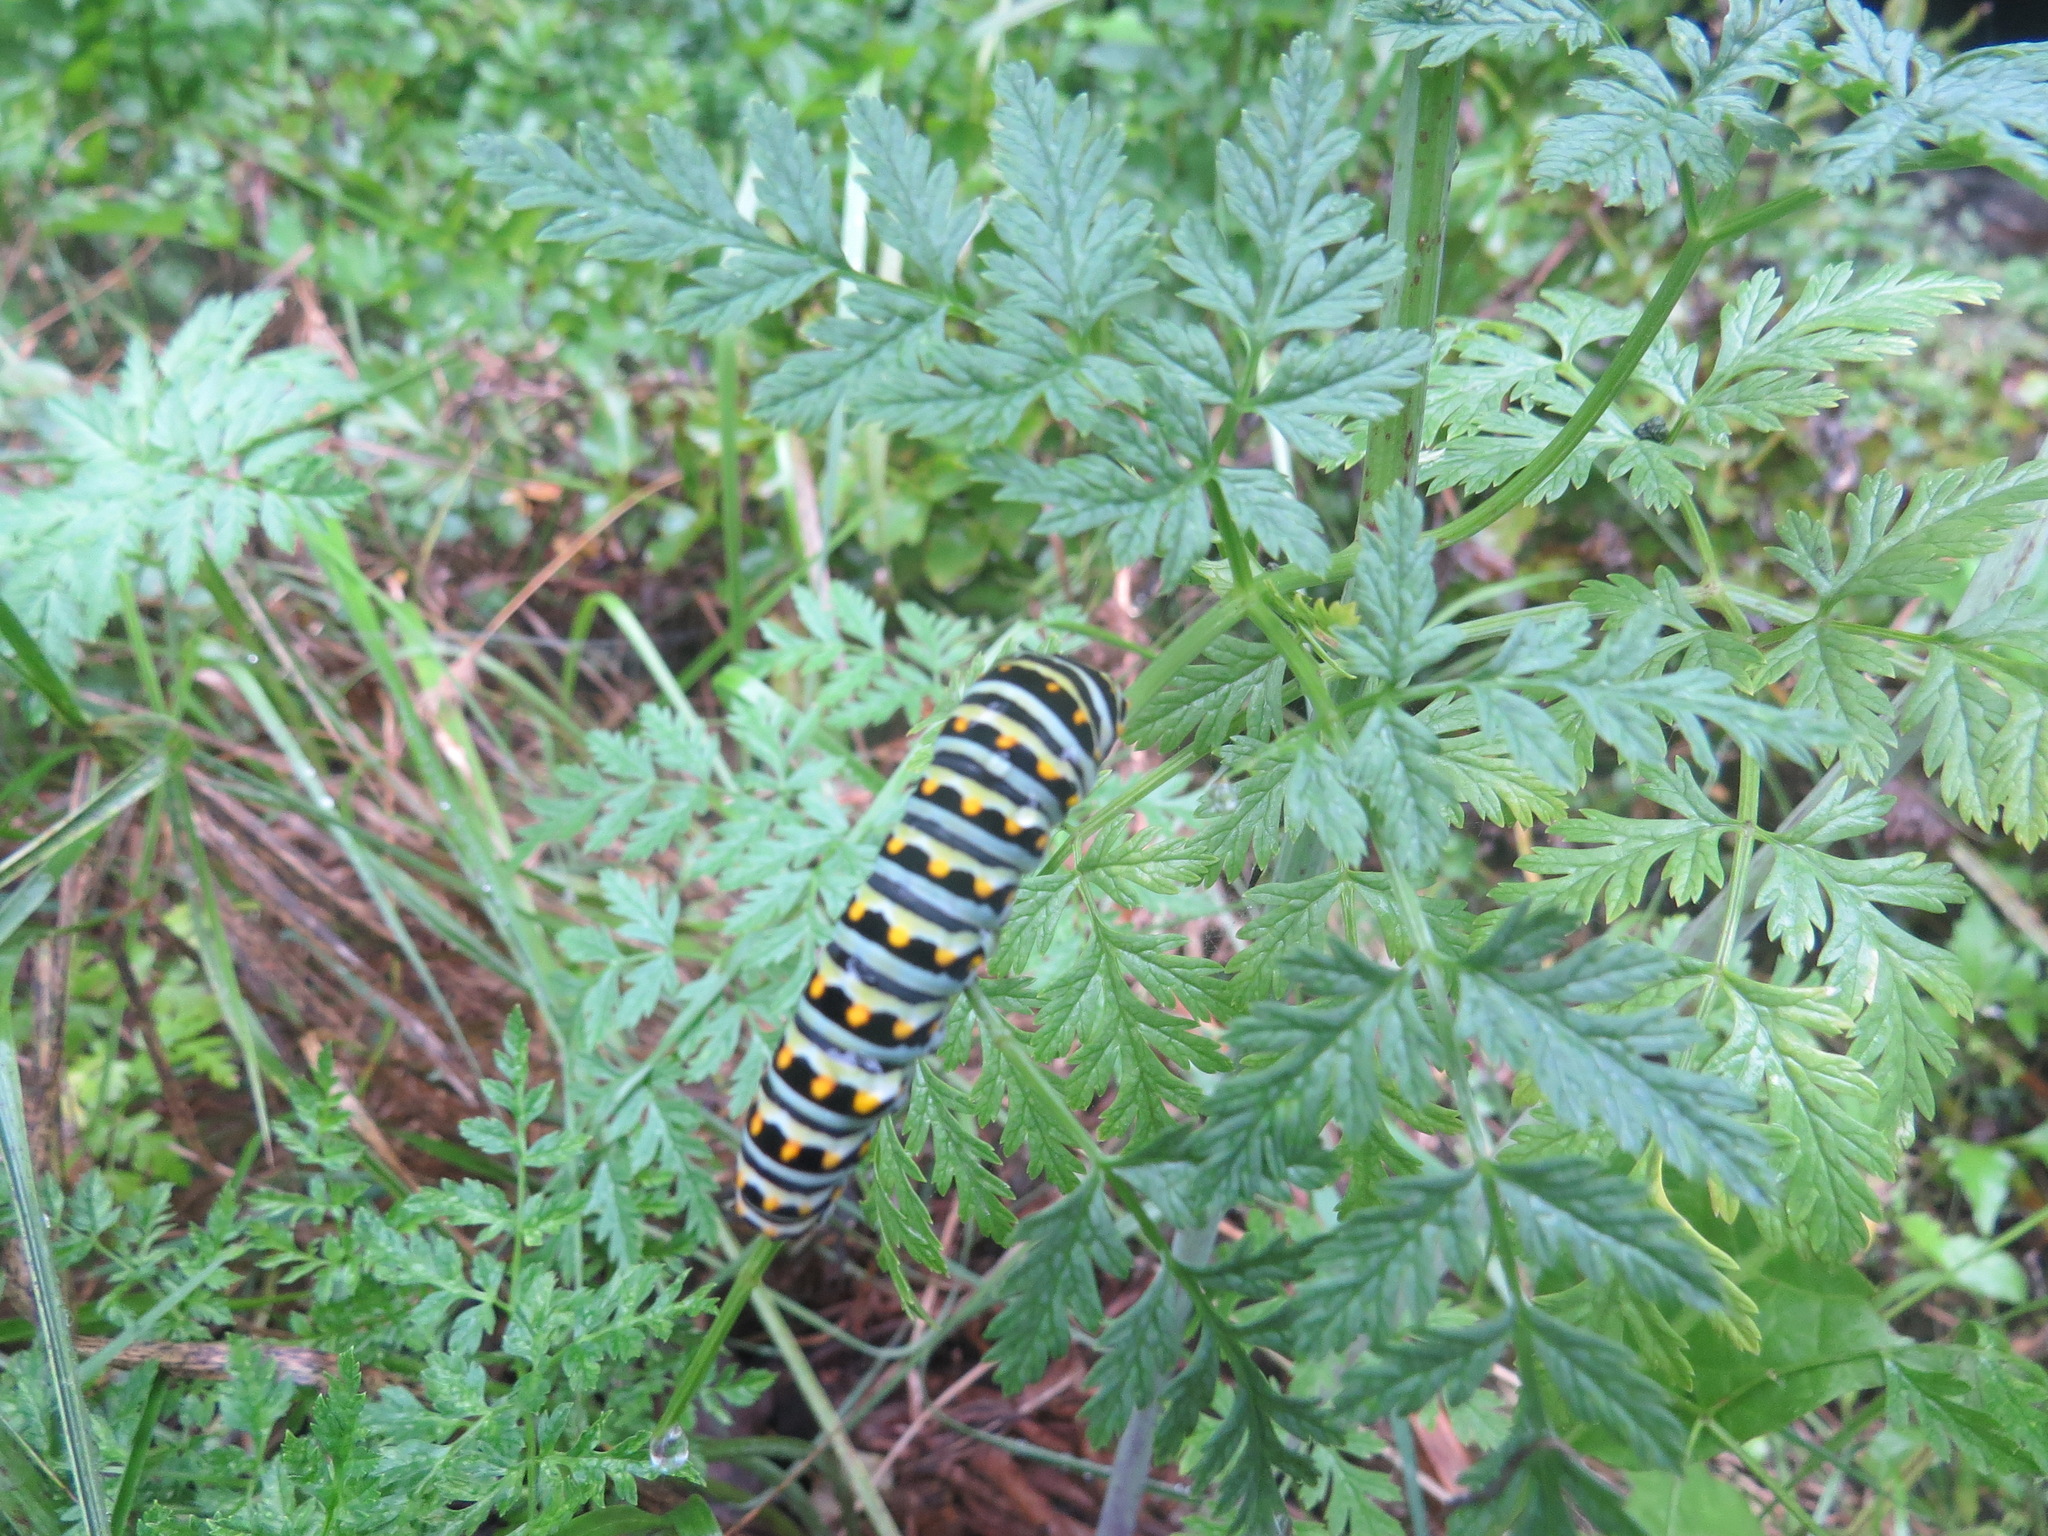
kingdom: Animalia
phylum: Arthropoda
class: Insecta
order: Lepidoptera
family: Papilionidae
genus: Papilio
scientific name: Papilio zelicaon
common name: Anise swallowtail
